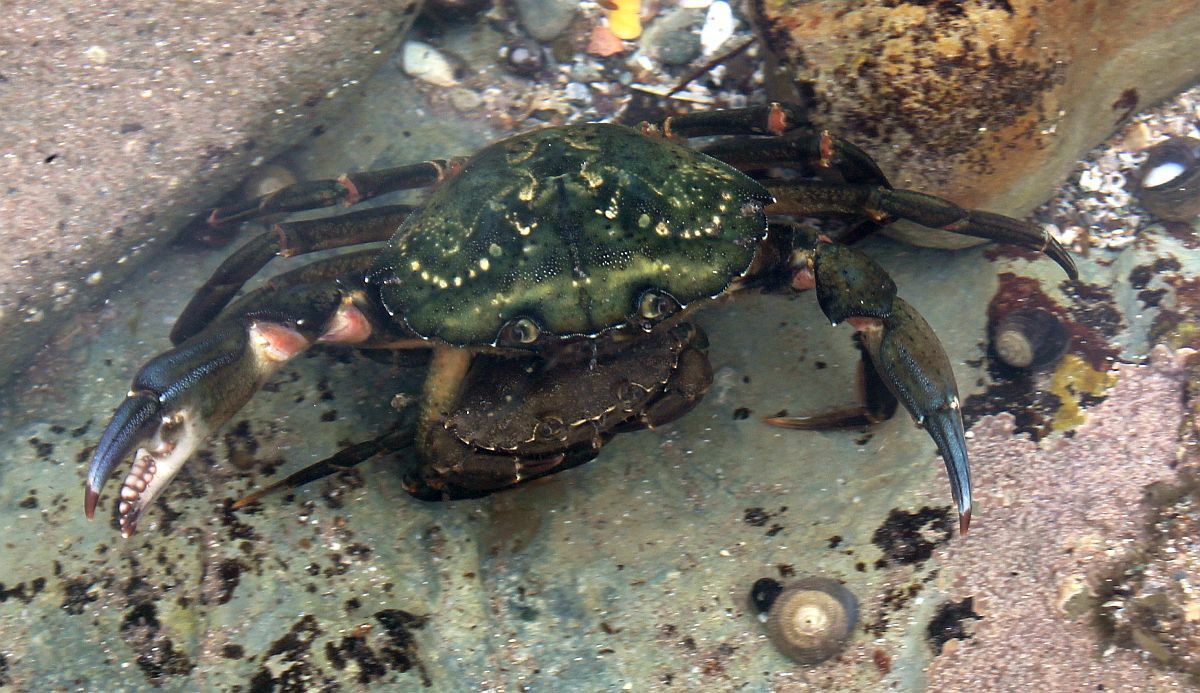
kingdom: Animalia
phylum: Arthropoda
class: Malacostraca
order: Decapoda
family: Carcinidae
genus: Carcinus
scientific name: Carcinus maenas
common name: European green crab
